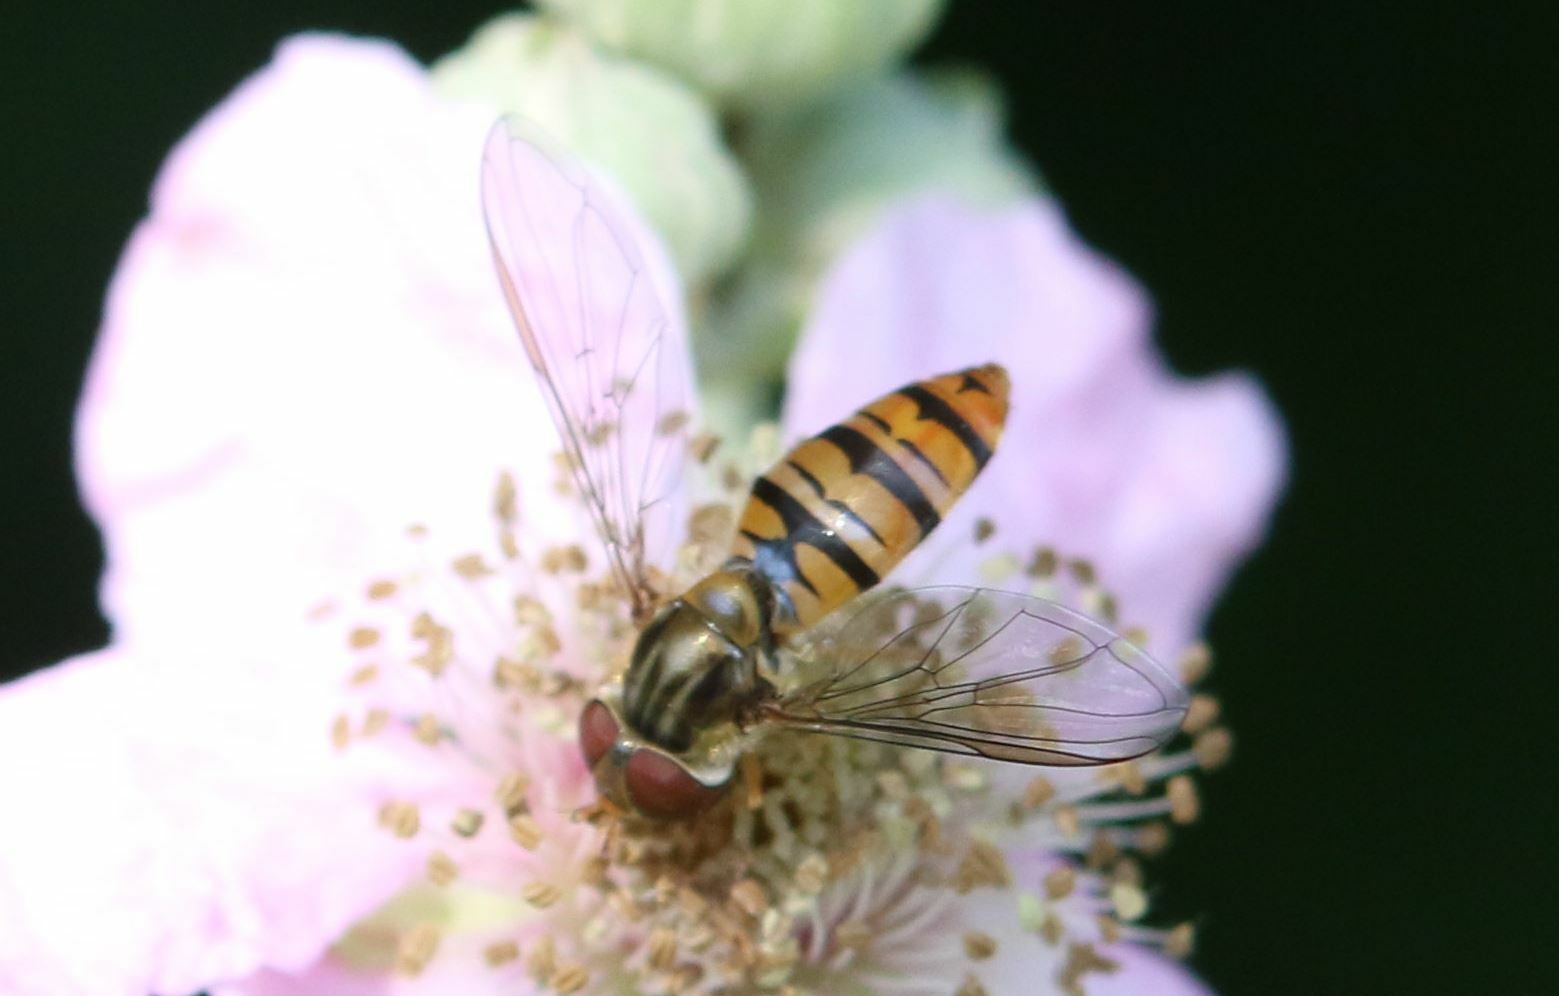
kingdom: Animalia
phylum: Arthropoda
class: Insecta
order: Diptera
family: Syrphidae
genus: Episyrphus
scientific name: Episyrphus balteatus
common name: Marmalade hoverfly
